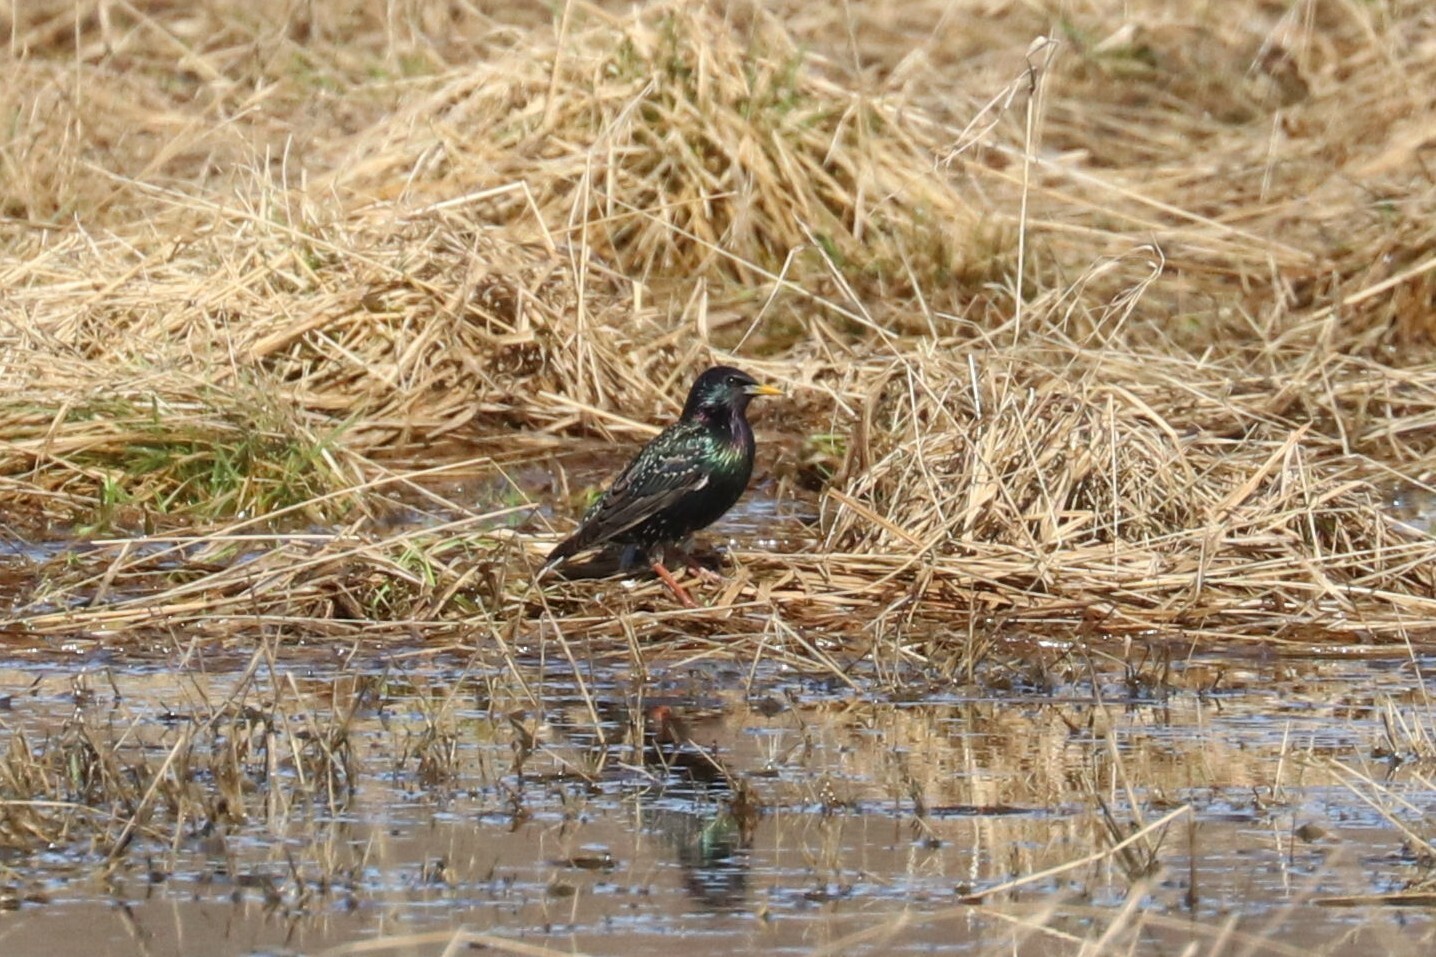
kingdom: Animalia
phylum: Chordata
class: Aves
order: Passeriformes
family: Sturnidae
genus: Sturnus
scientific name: Sturnus vulgaris
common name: Common starling
